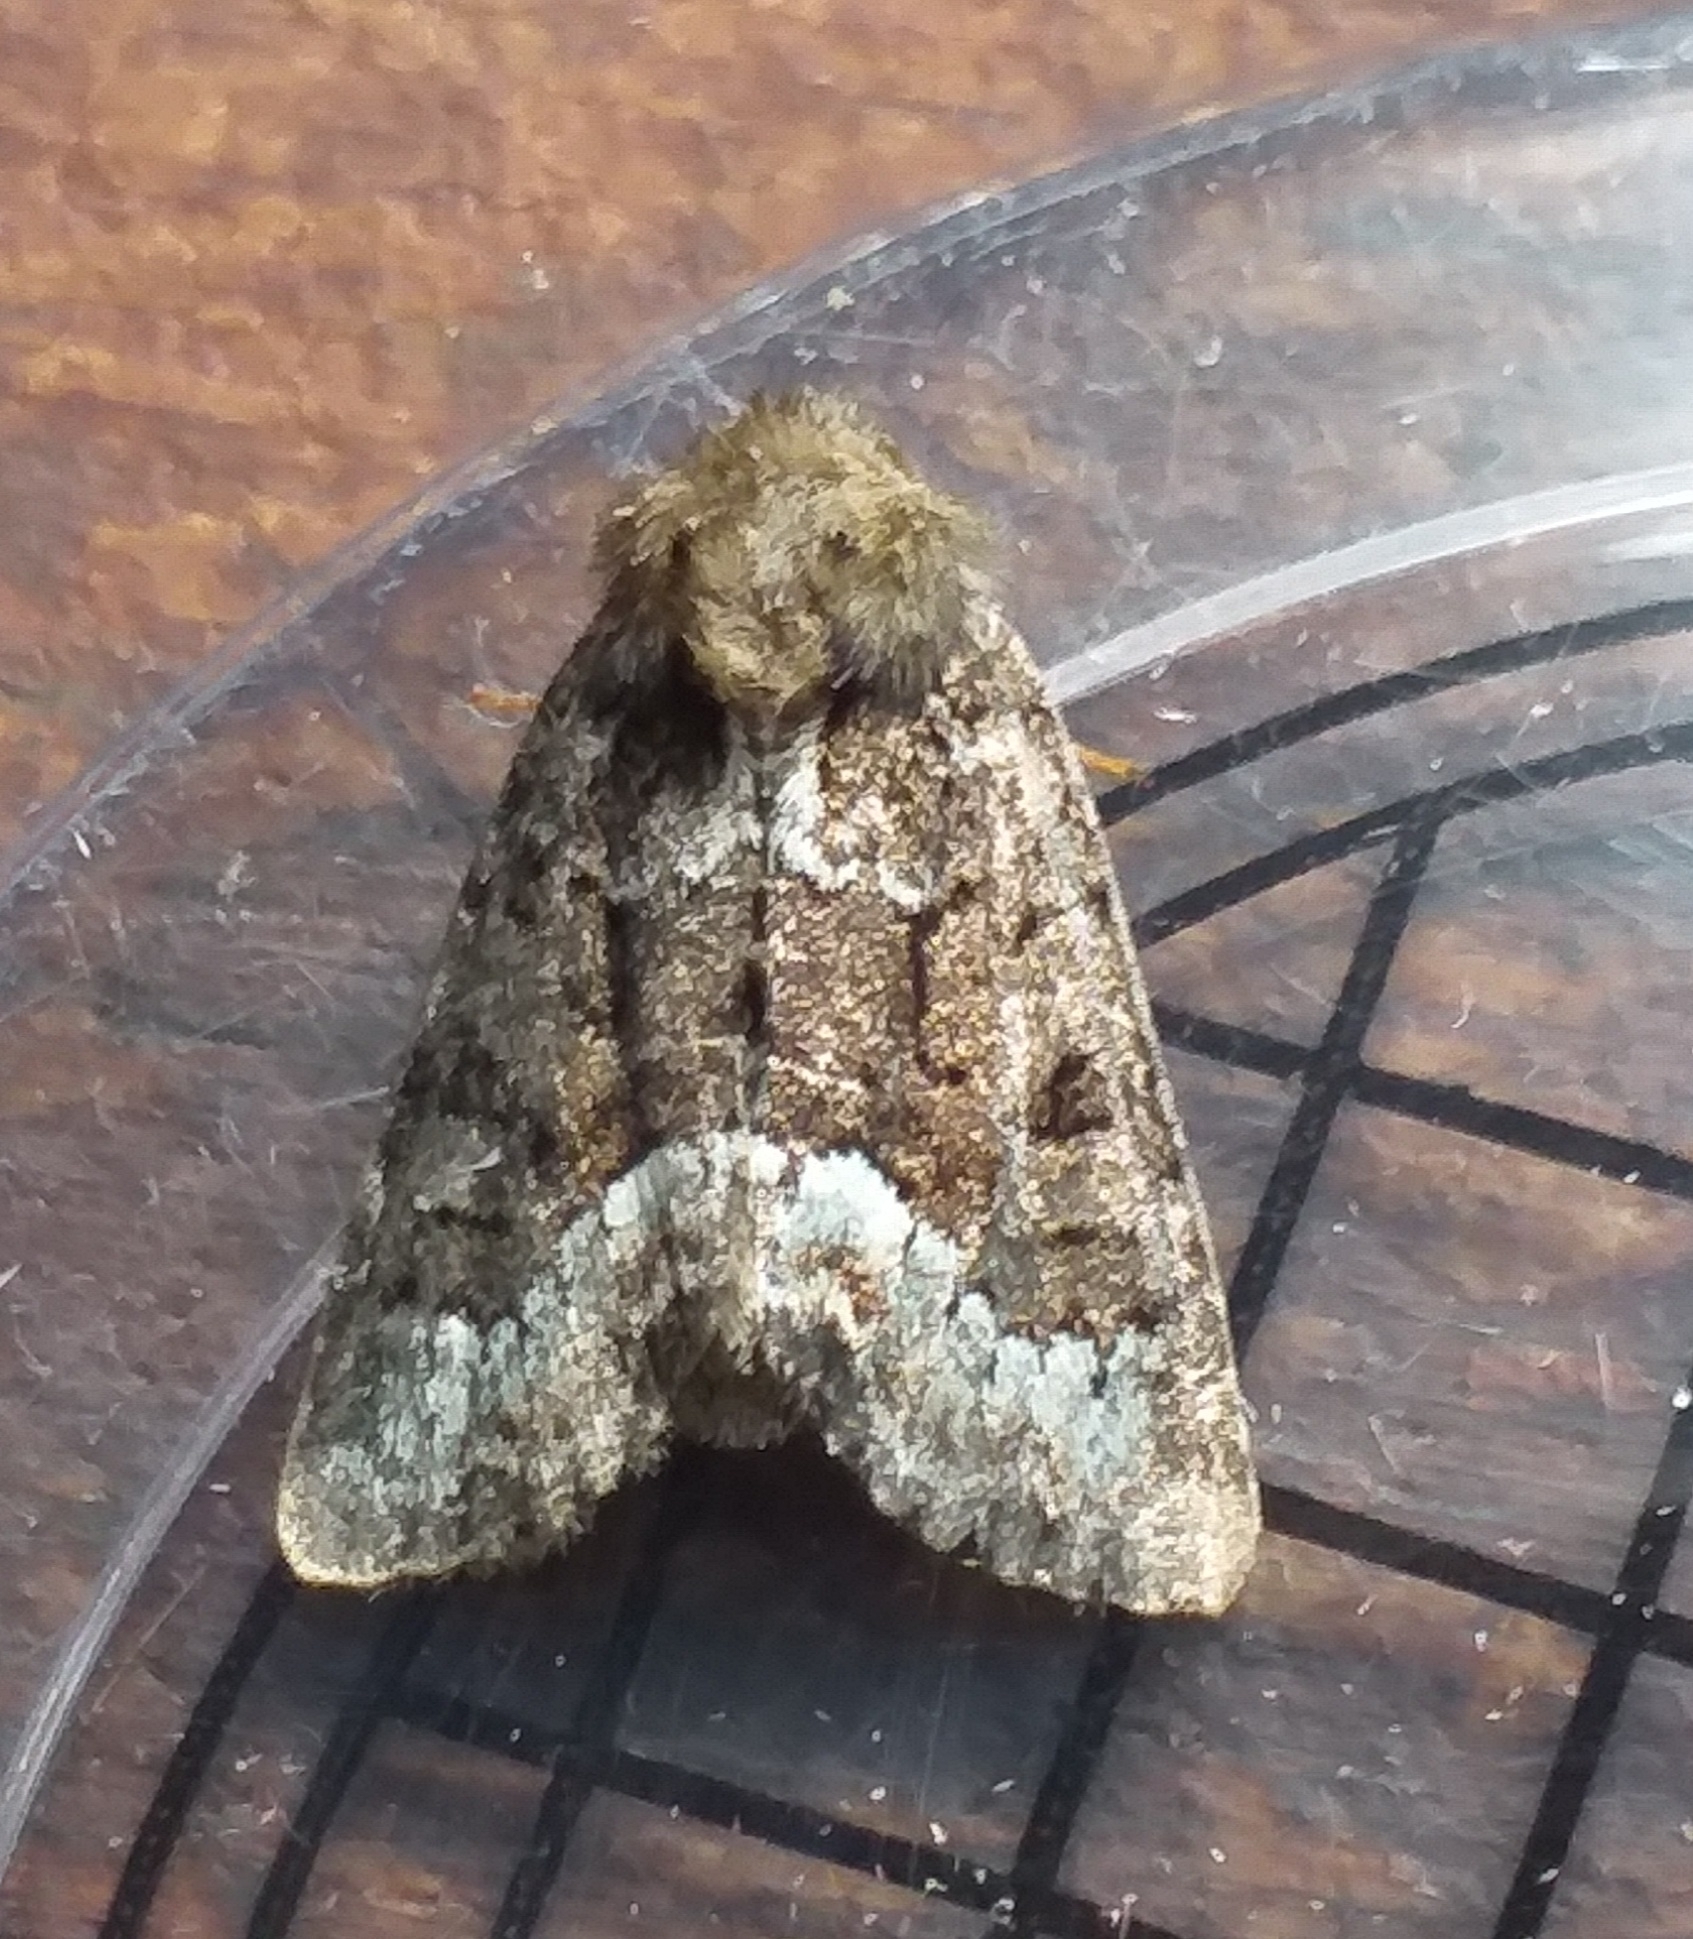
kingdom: Animalia
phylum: Arthropoda
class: Insecta
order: Lepidoptera
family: Noctuidae
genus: Oligia
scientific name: Oligia strigilis
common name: Marbled minor
